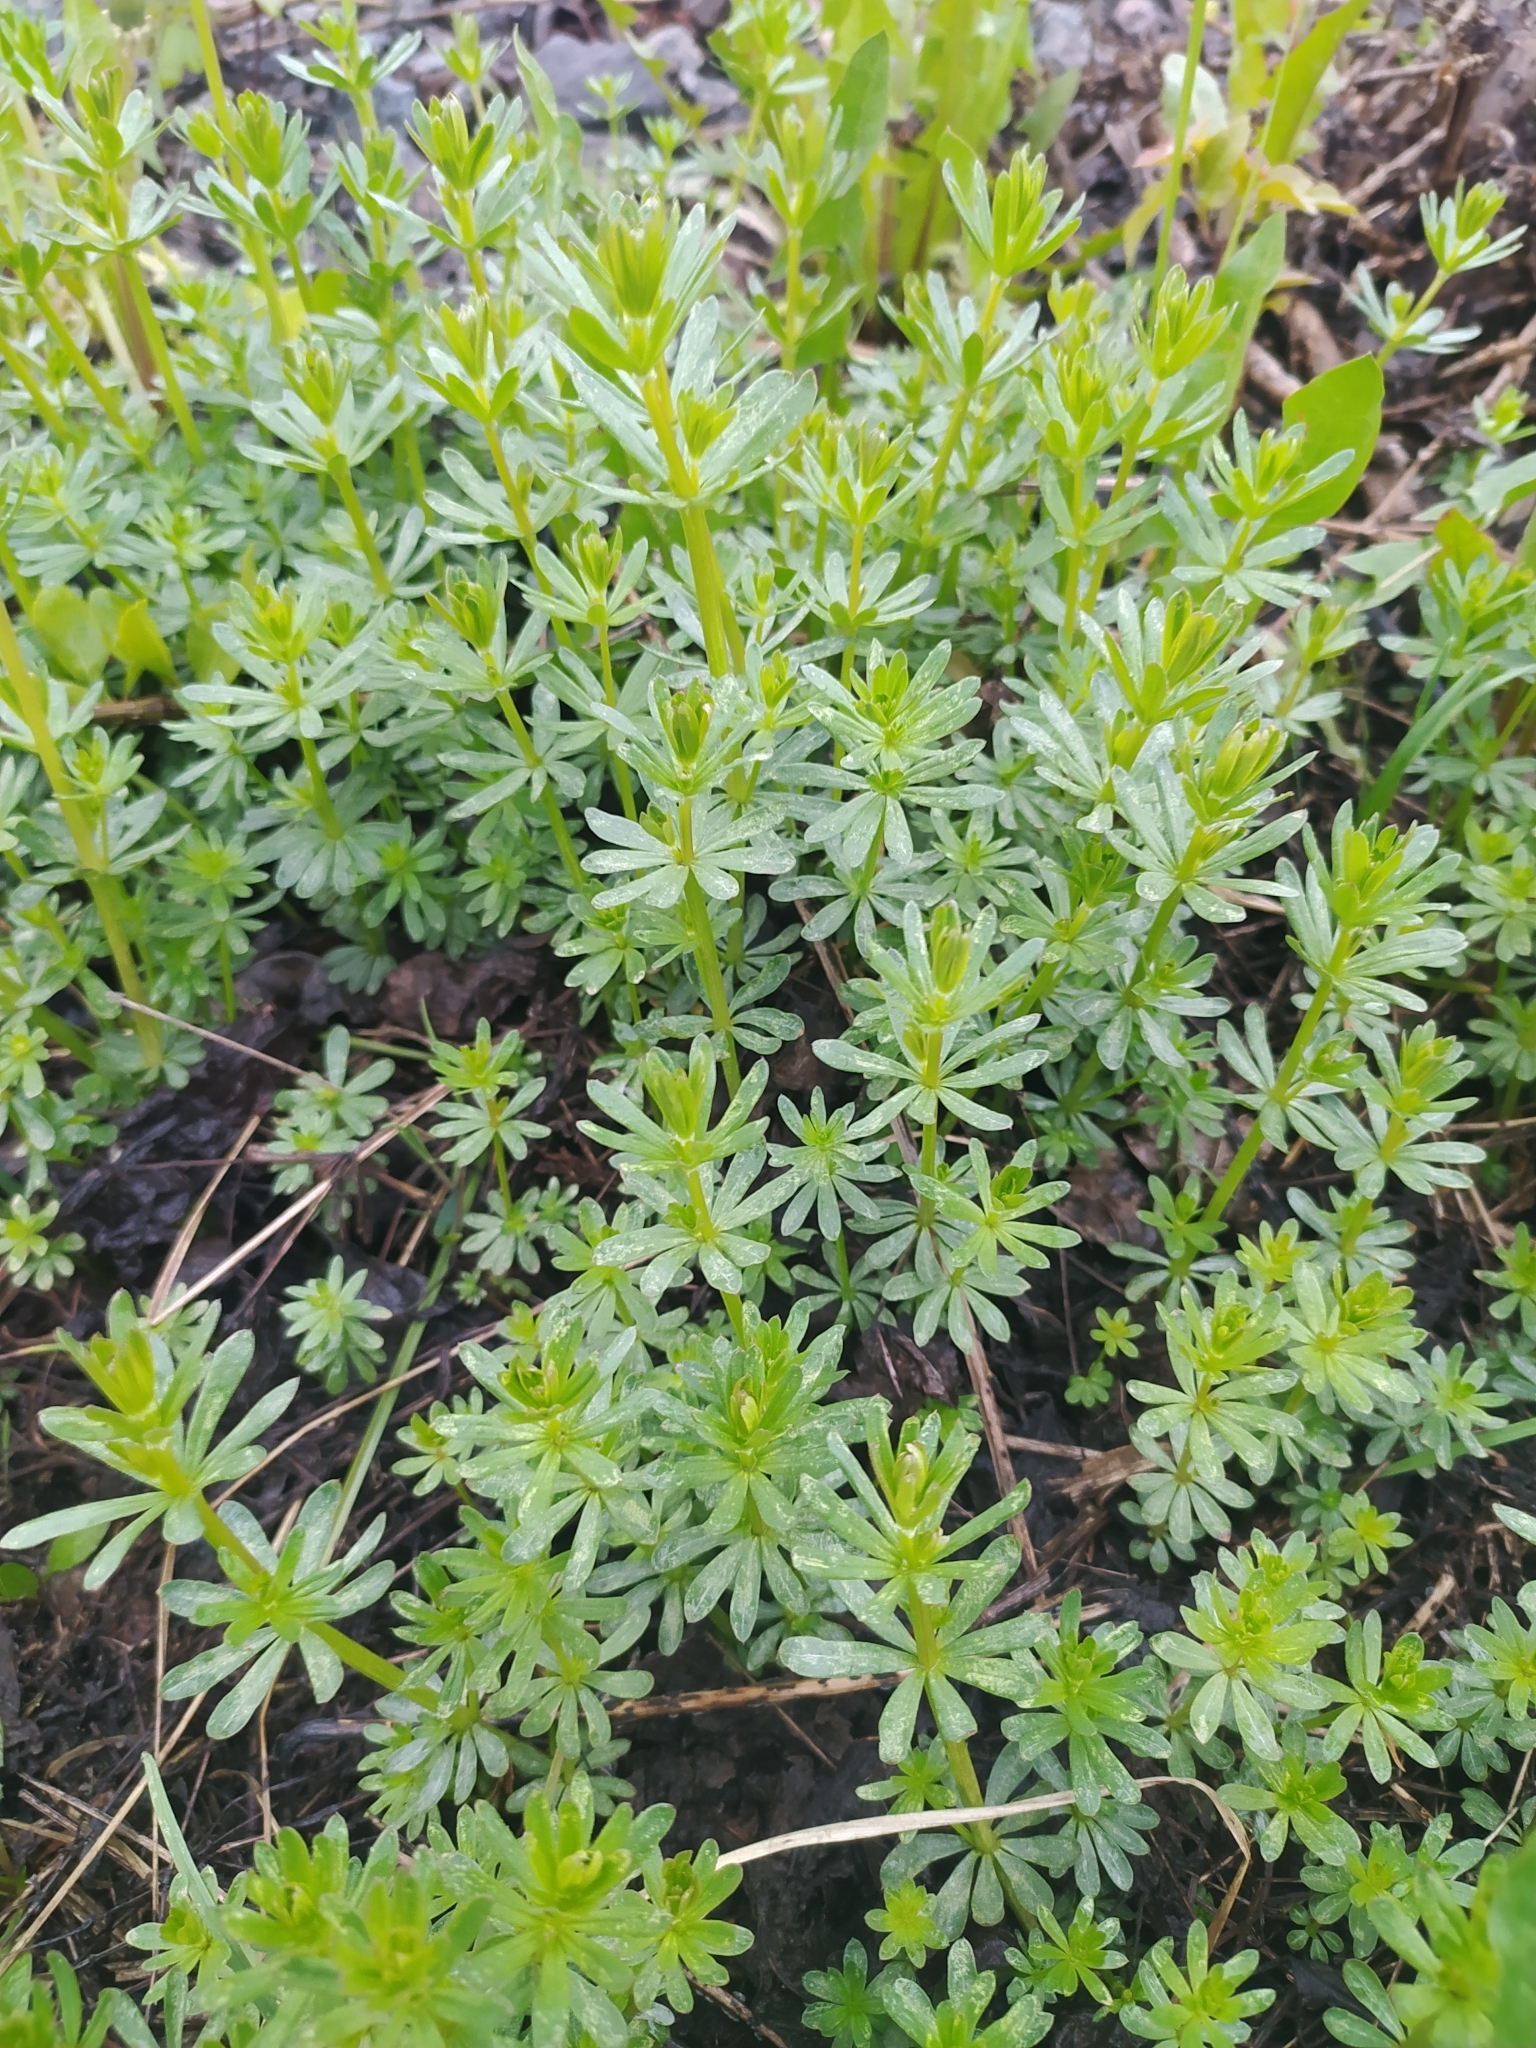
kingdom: Plantae
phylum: Tracheophyta
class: Magnoliopsida
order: Gentianales
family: Rubiaceae
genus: Galium
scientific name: Galium mollugo
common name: Hedge bedstraw
